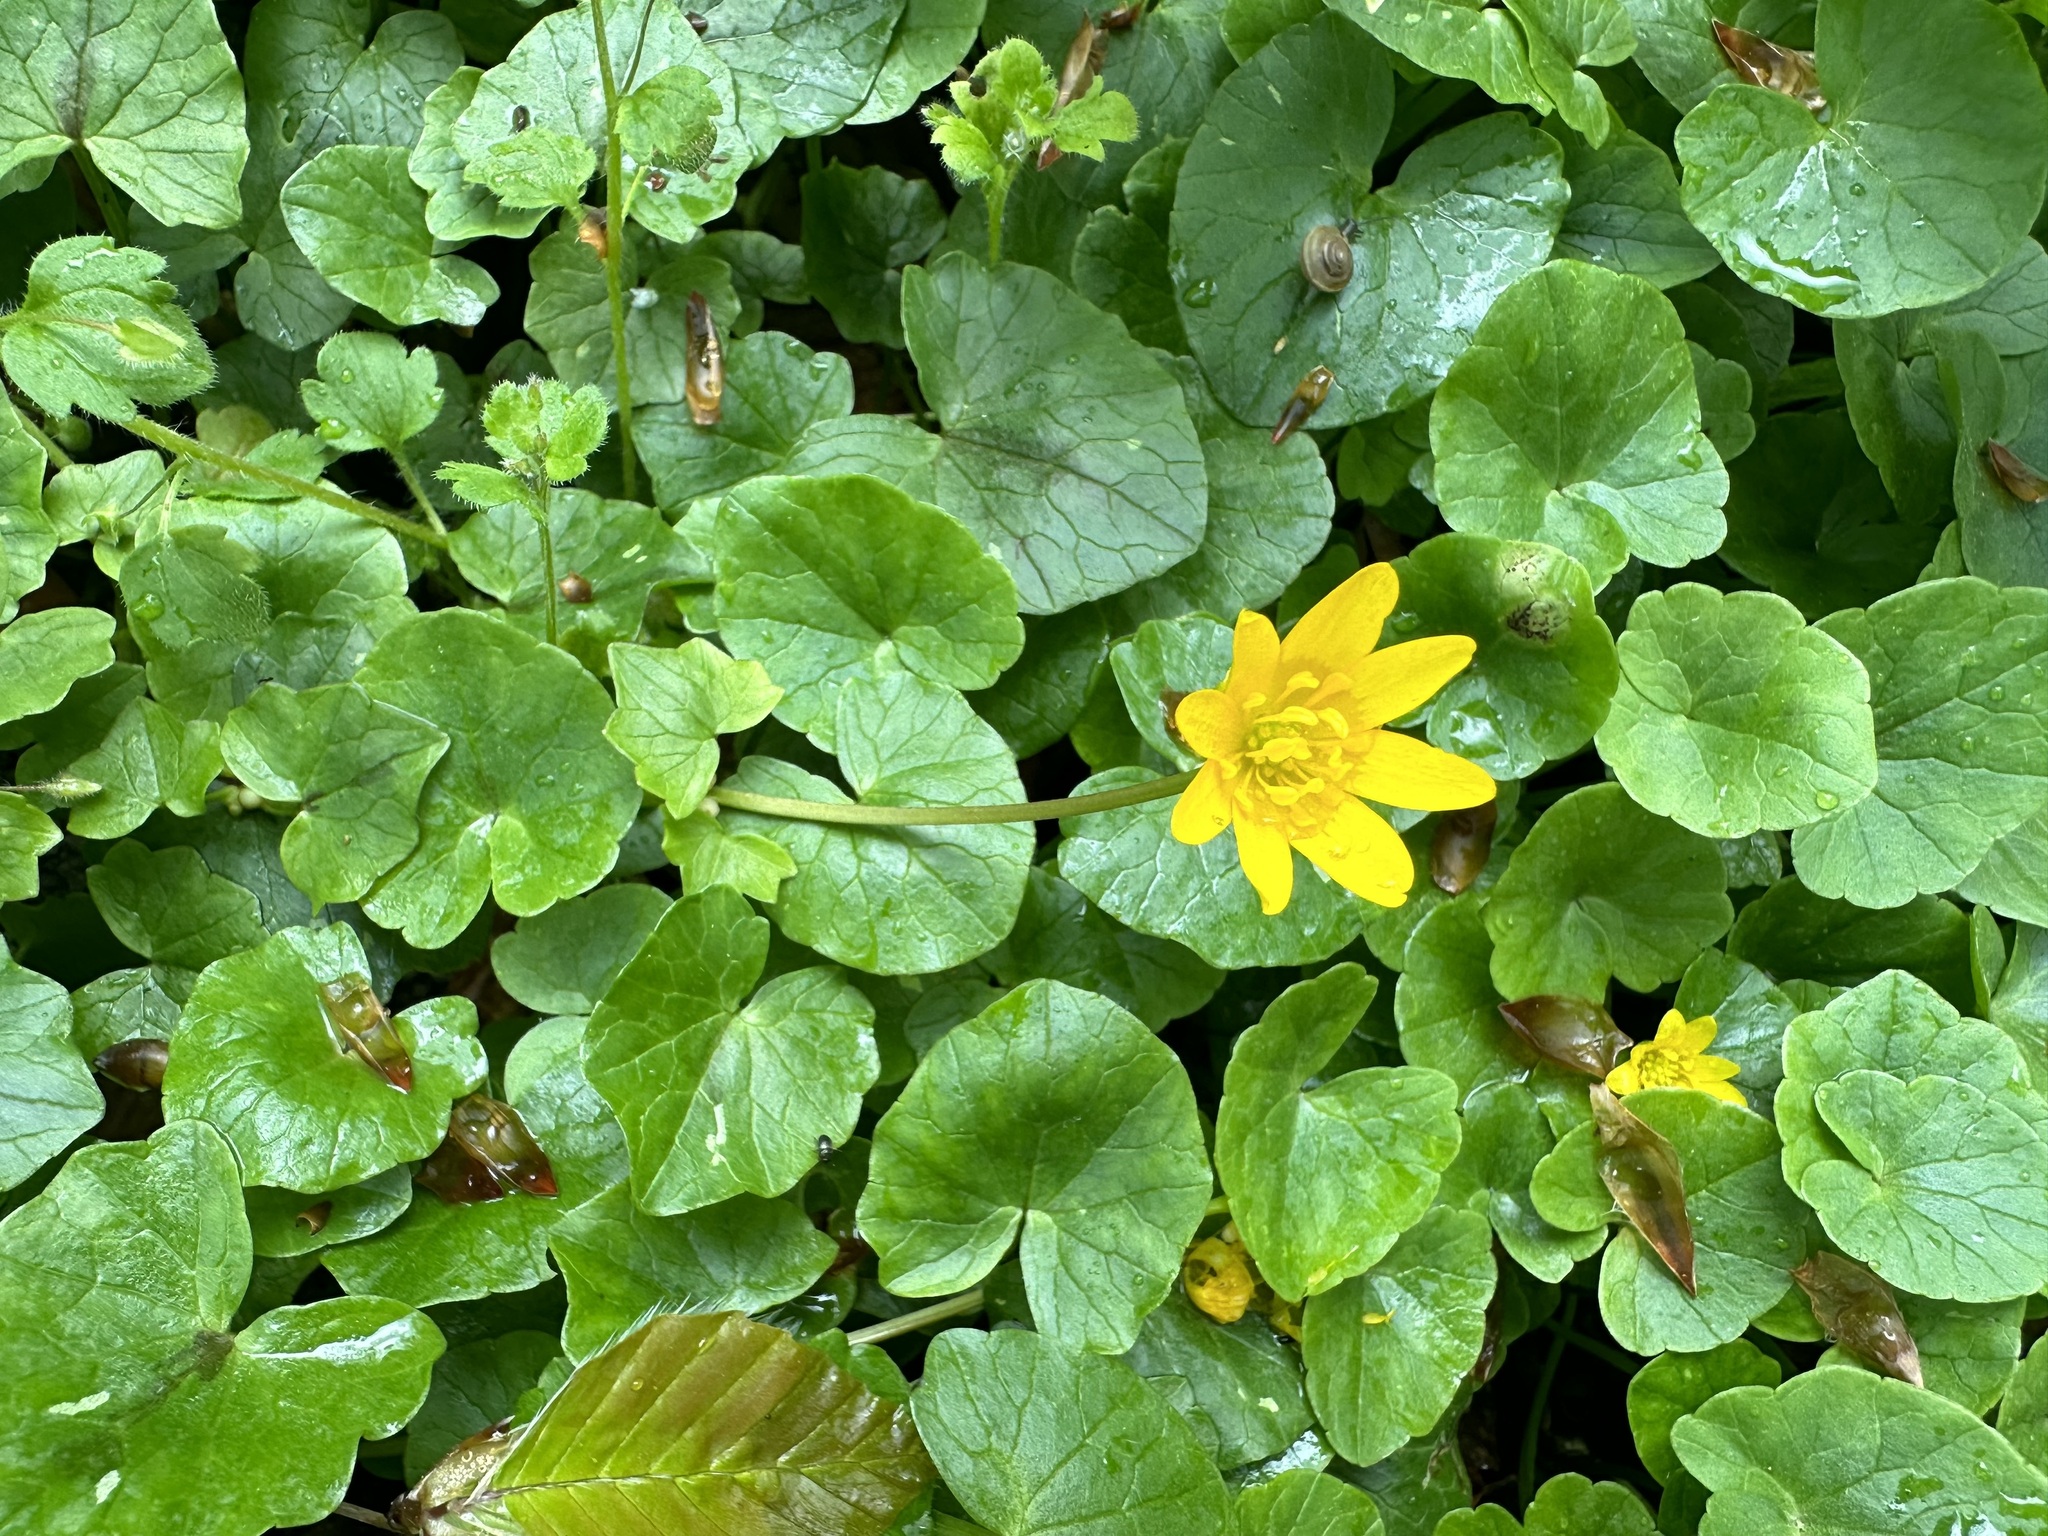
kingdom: Plantae
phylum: Tracheophyta
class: Magnoliopsida
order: Ranunculales
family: Ranunculaceae
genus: Ficaria
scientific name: Ficaria verna
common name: Lesser celandine
